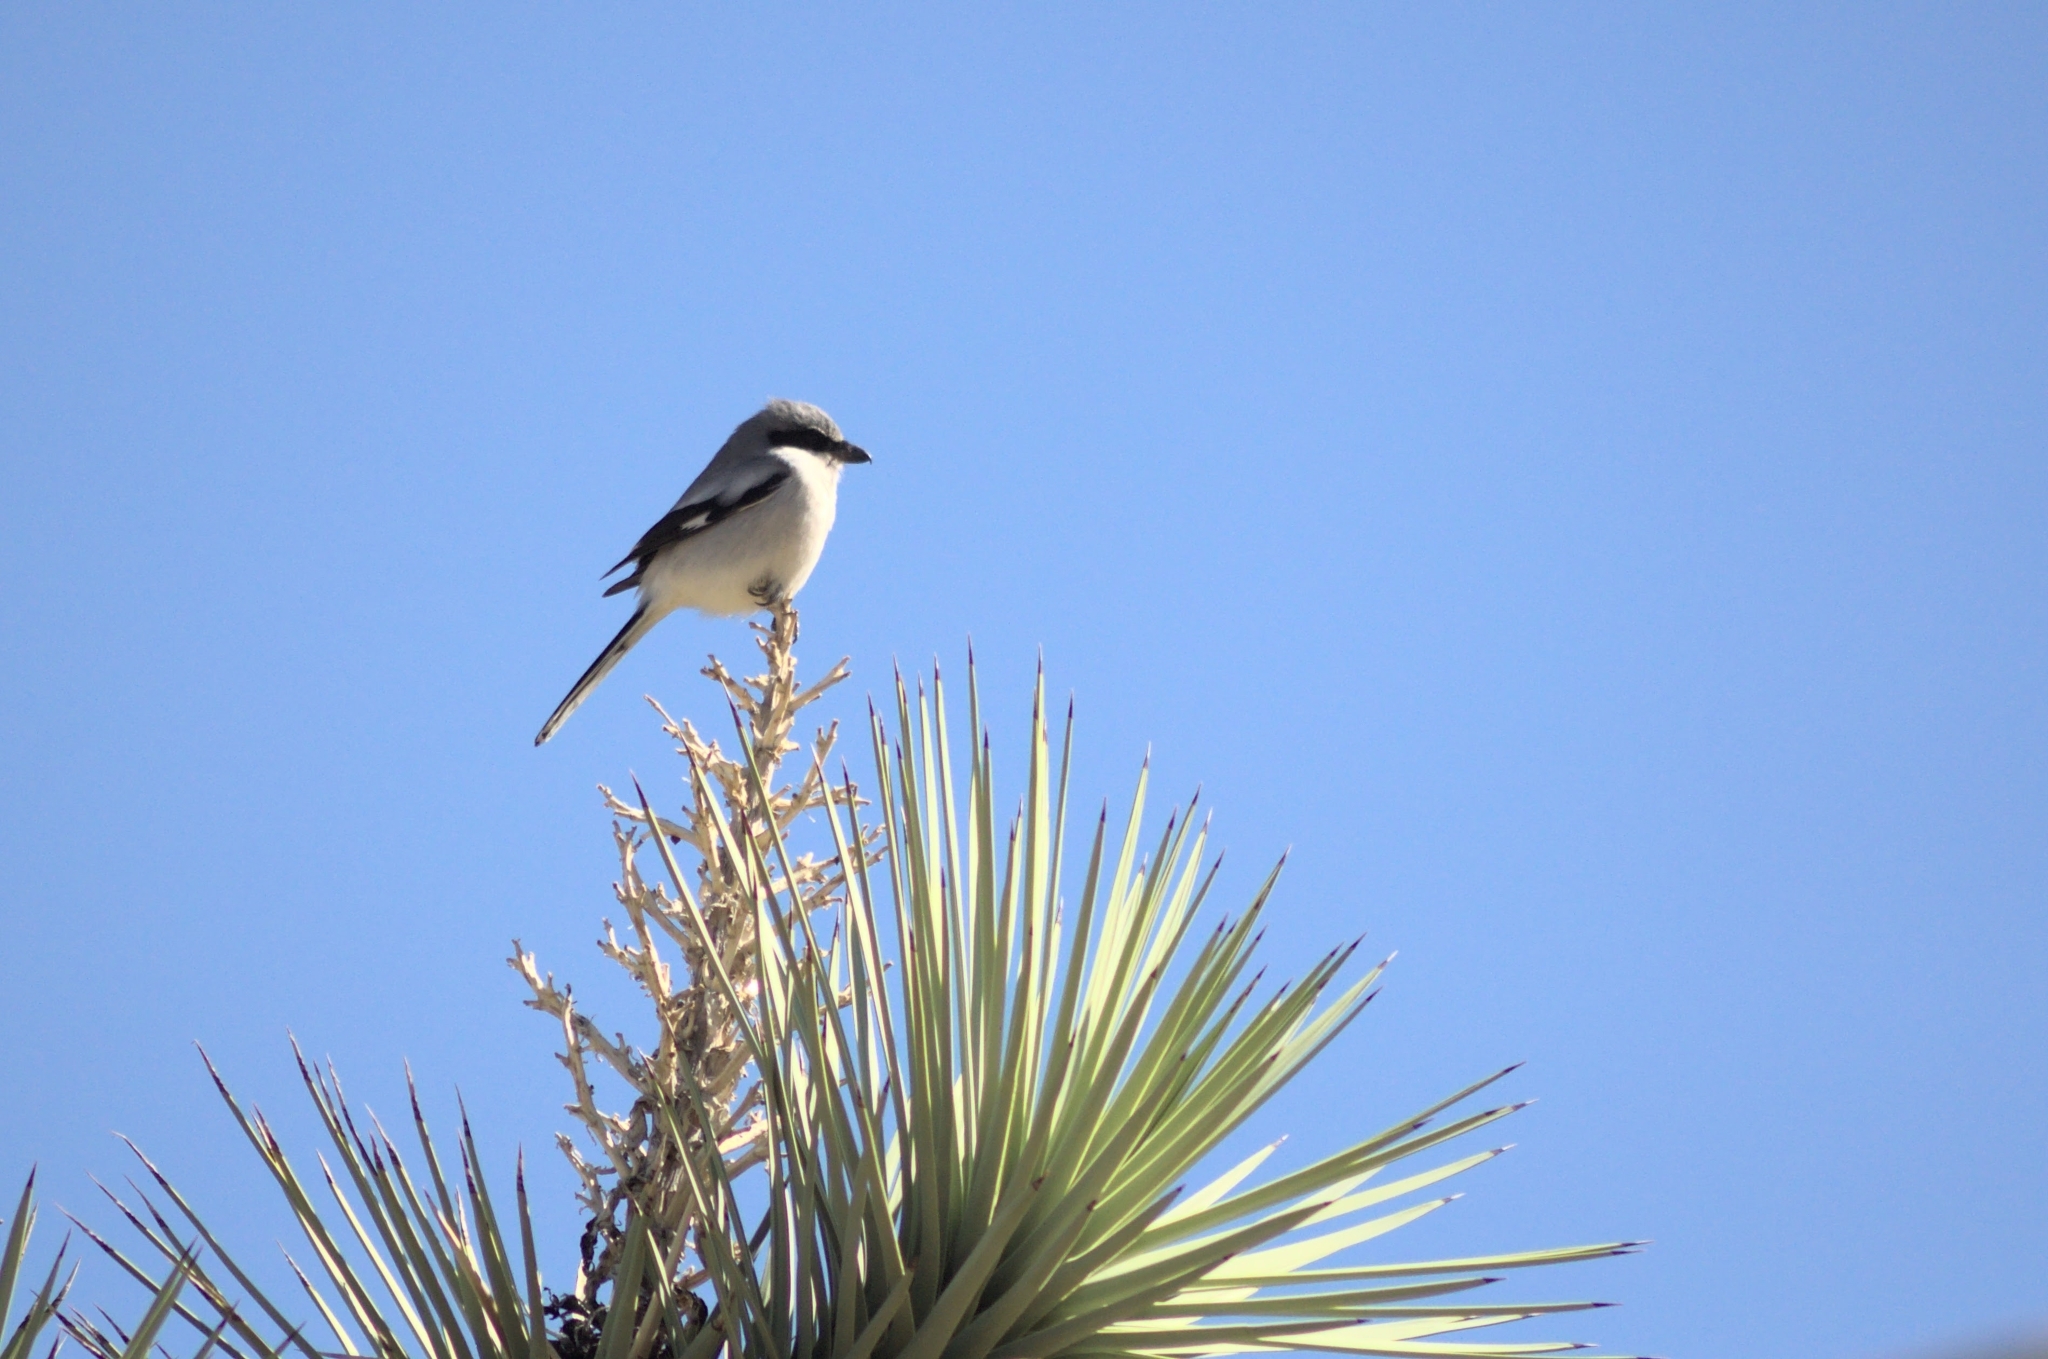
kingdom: Animalia
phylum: Chordata
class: Aves
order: Passeriformes
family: Laniidae
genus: Lanius
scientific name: Lanius ludovicianus
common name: Loggerhead shrike
